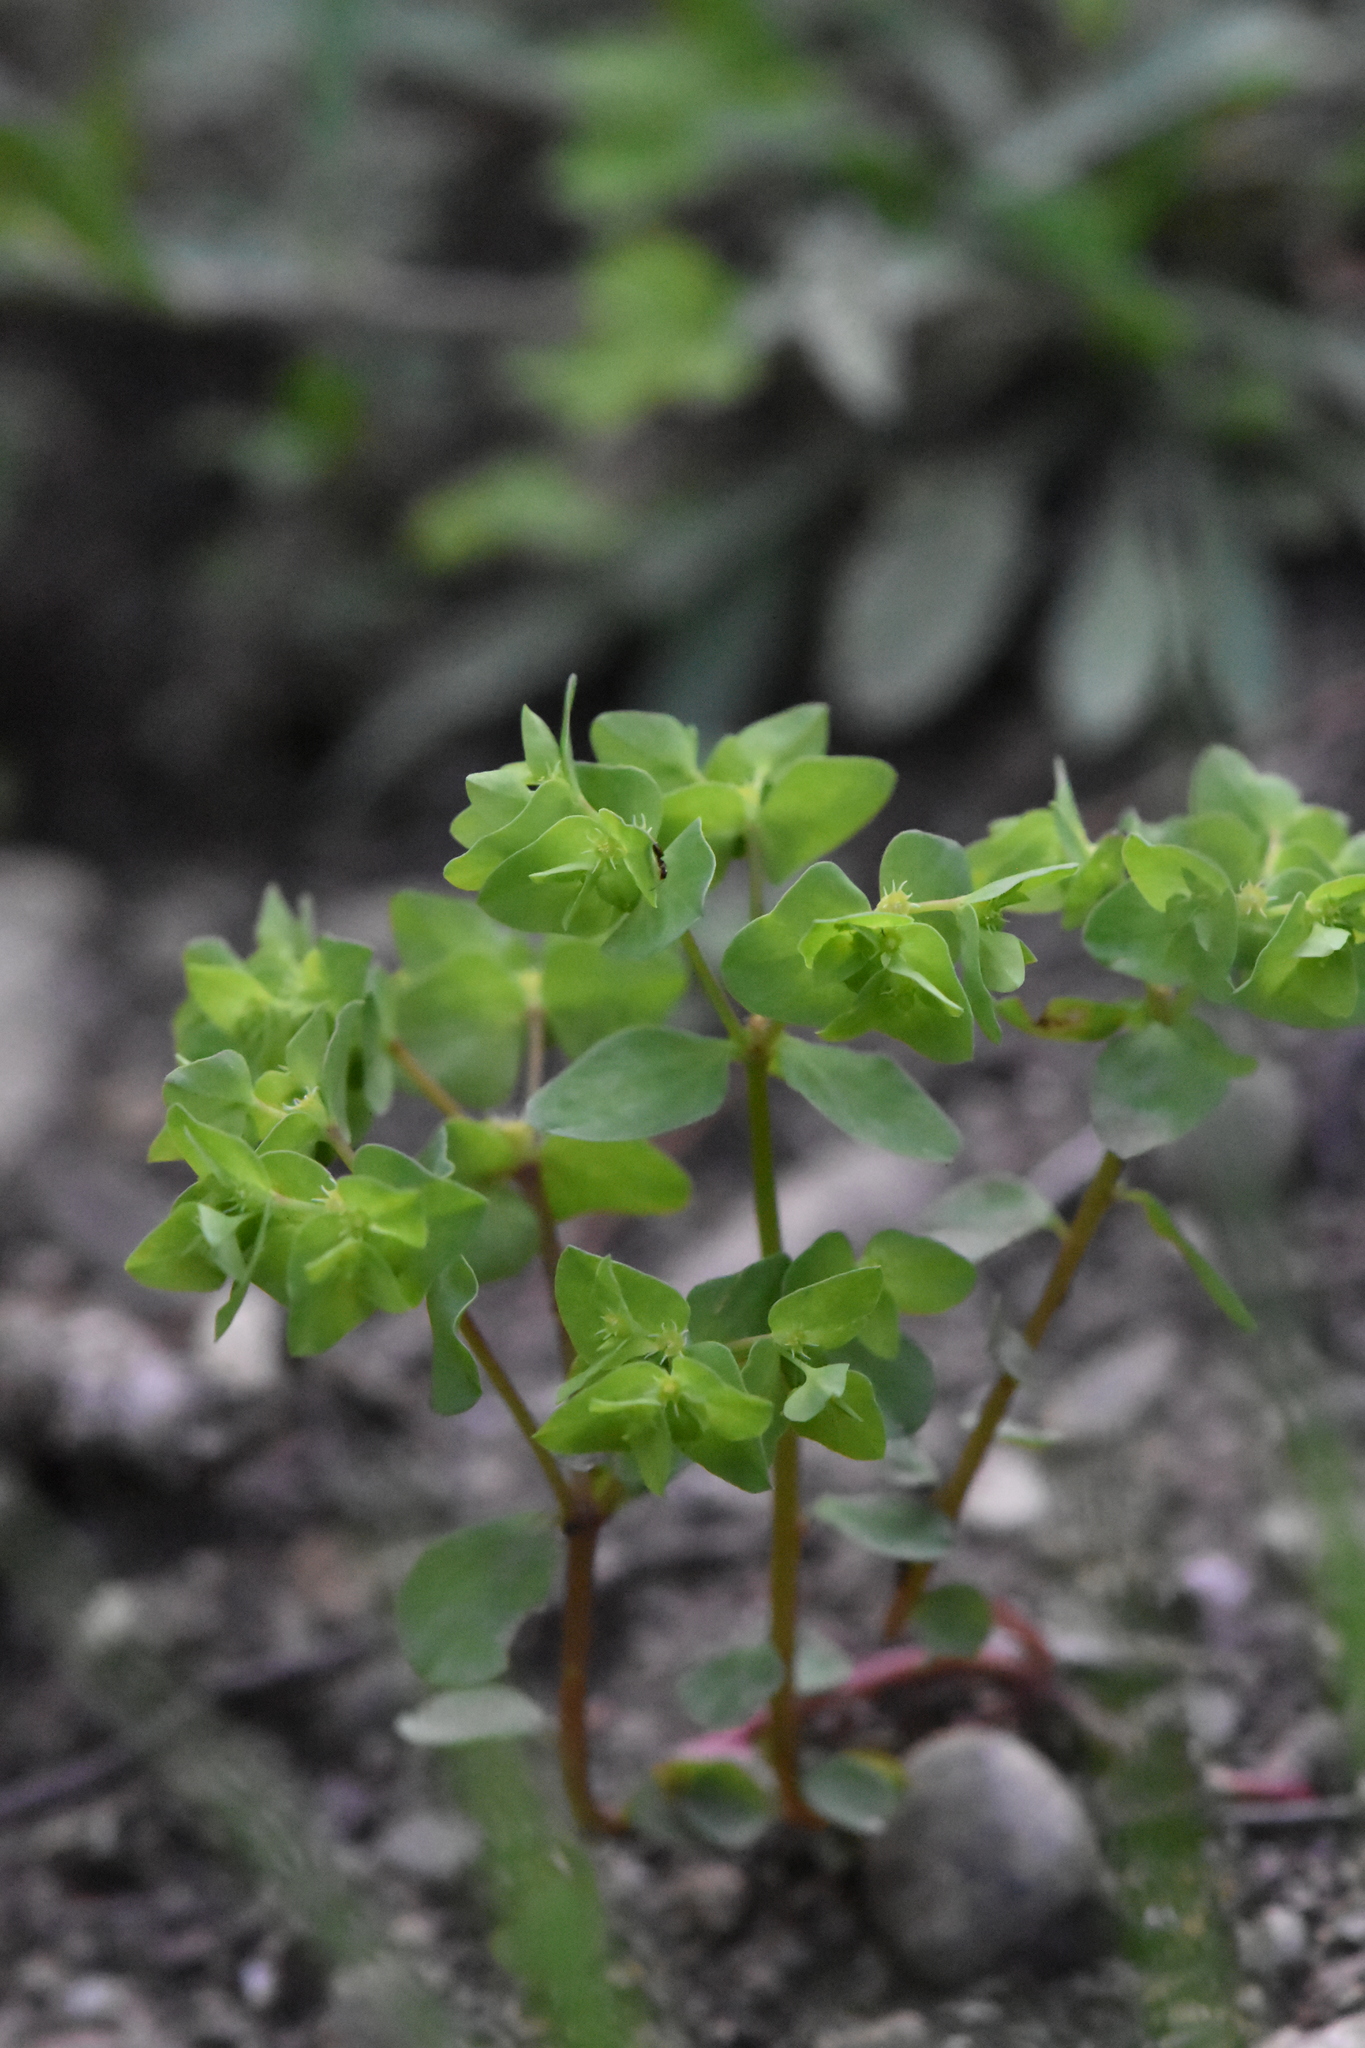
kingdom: Plantae
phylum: Tracheophyta
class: Magnoliopsida
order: Malpighiales
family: Euphorbiaceae
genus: Euphorbia
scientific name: Euphorbia peplus
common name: Petty spurge
